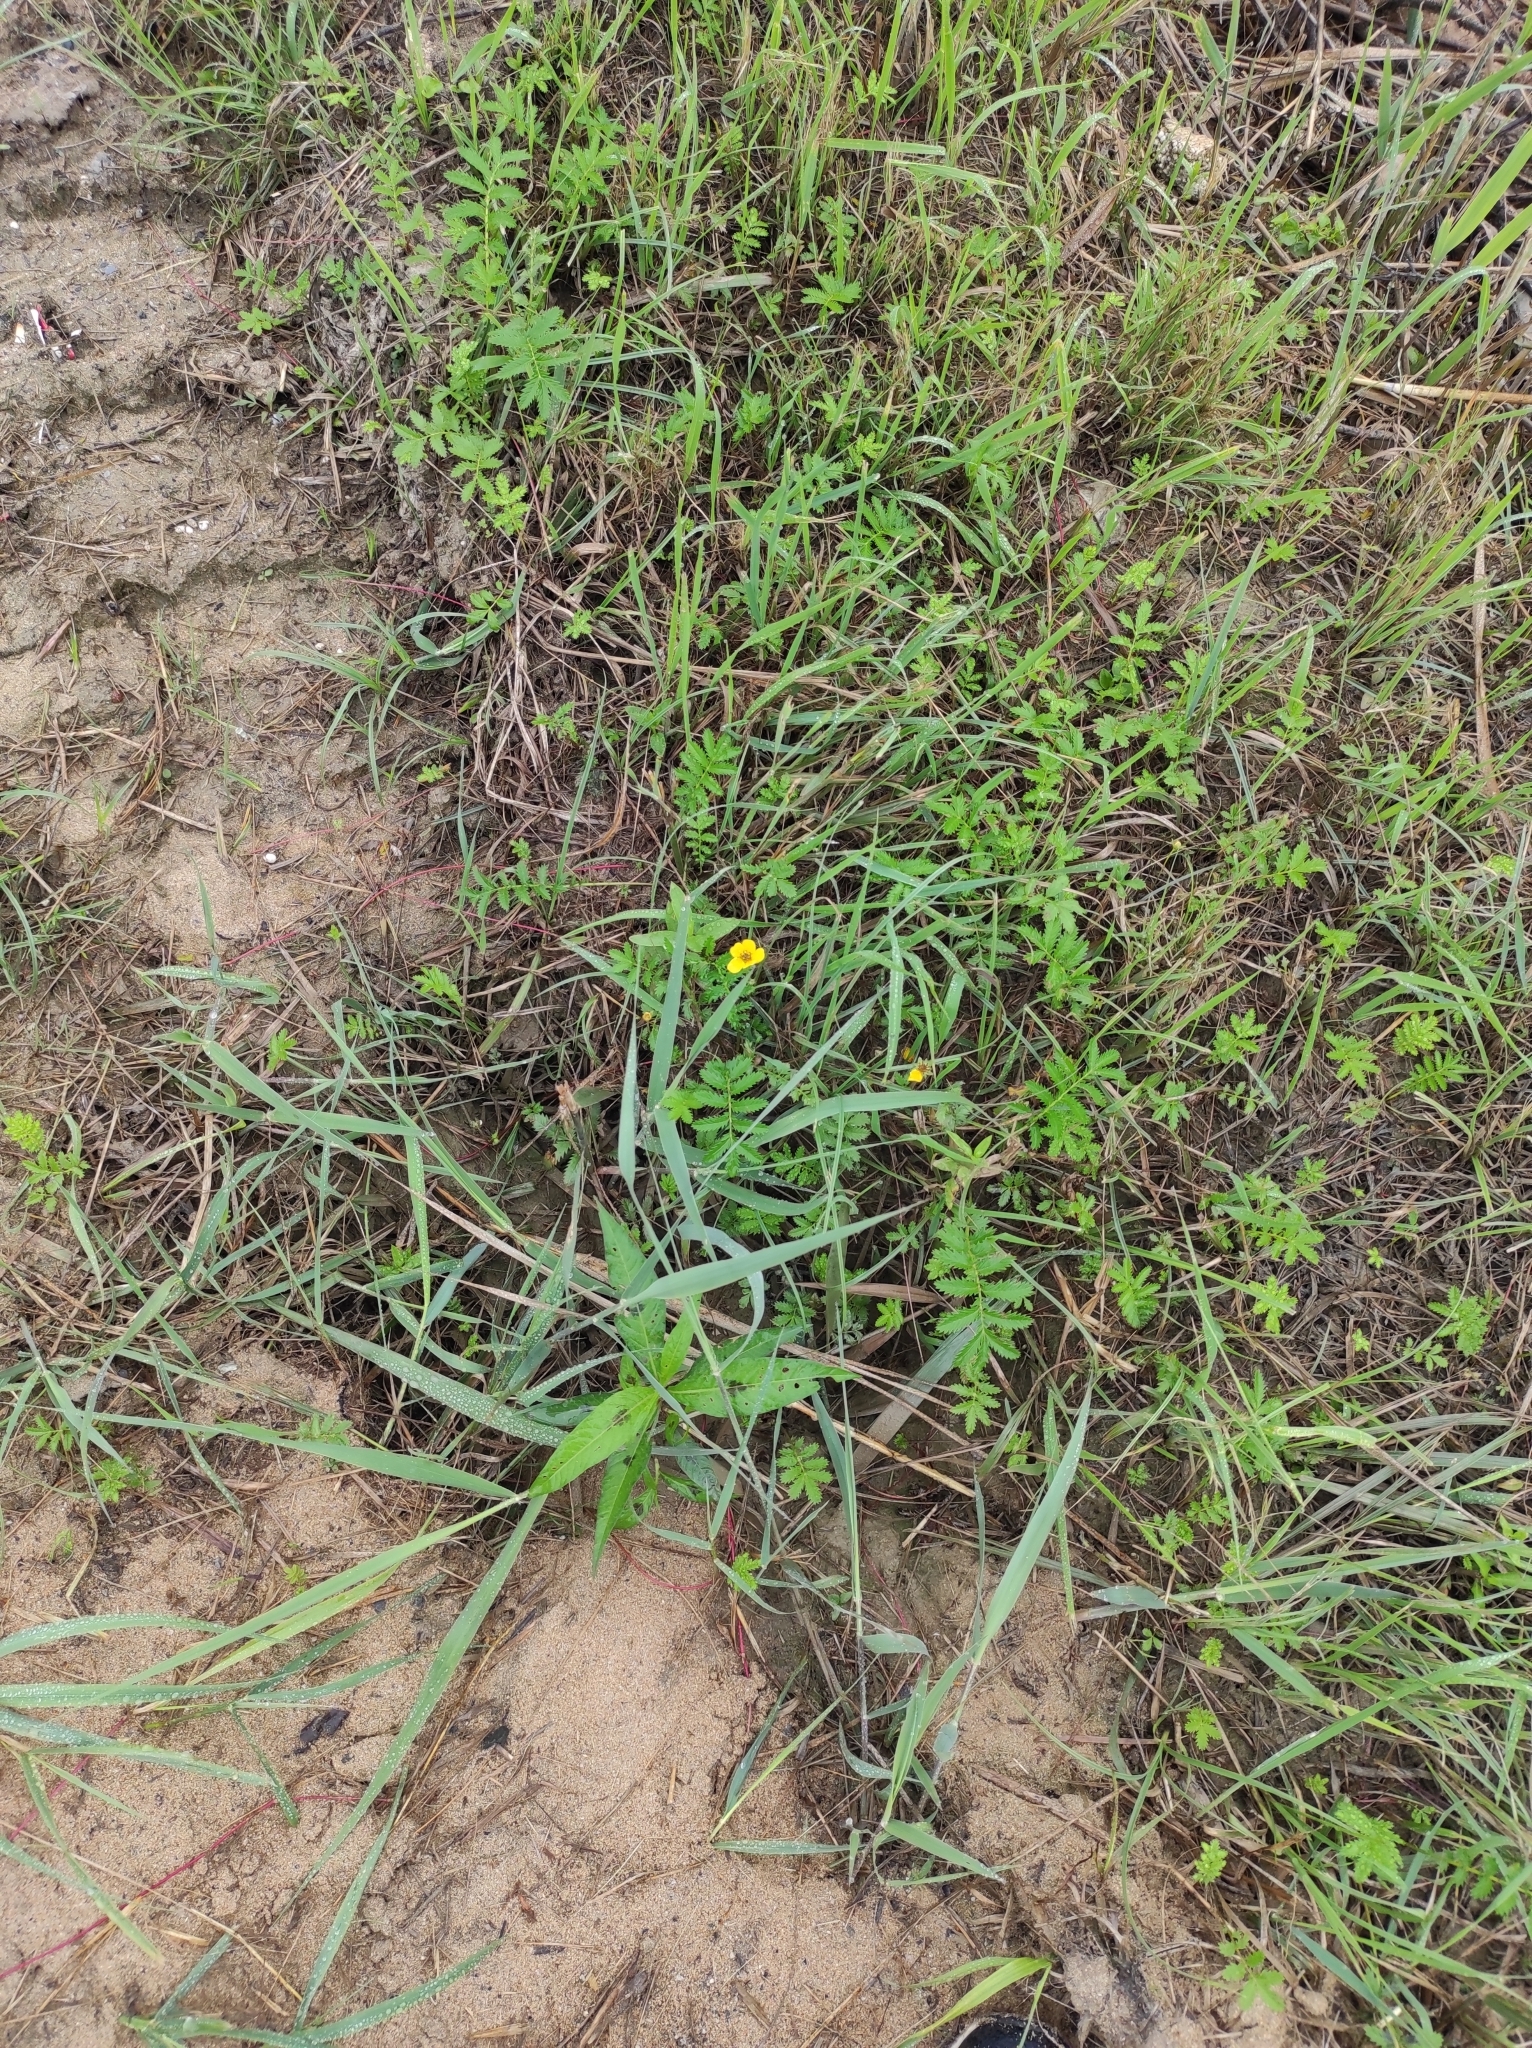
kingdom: Plantae
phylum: Tracheophyta
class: Magnoliopsida
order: Rosales
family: Rosaceae
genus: Argentina
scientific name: Argentina anserina
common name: Common silverweed
